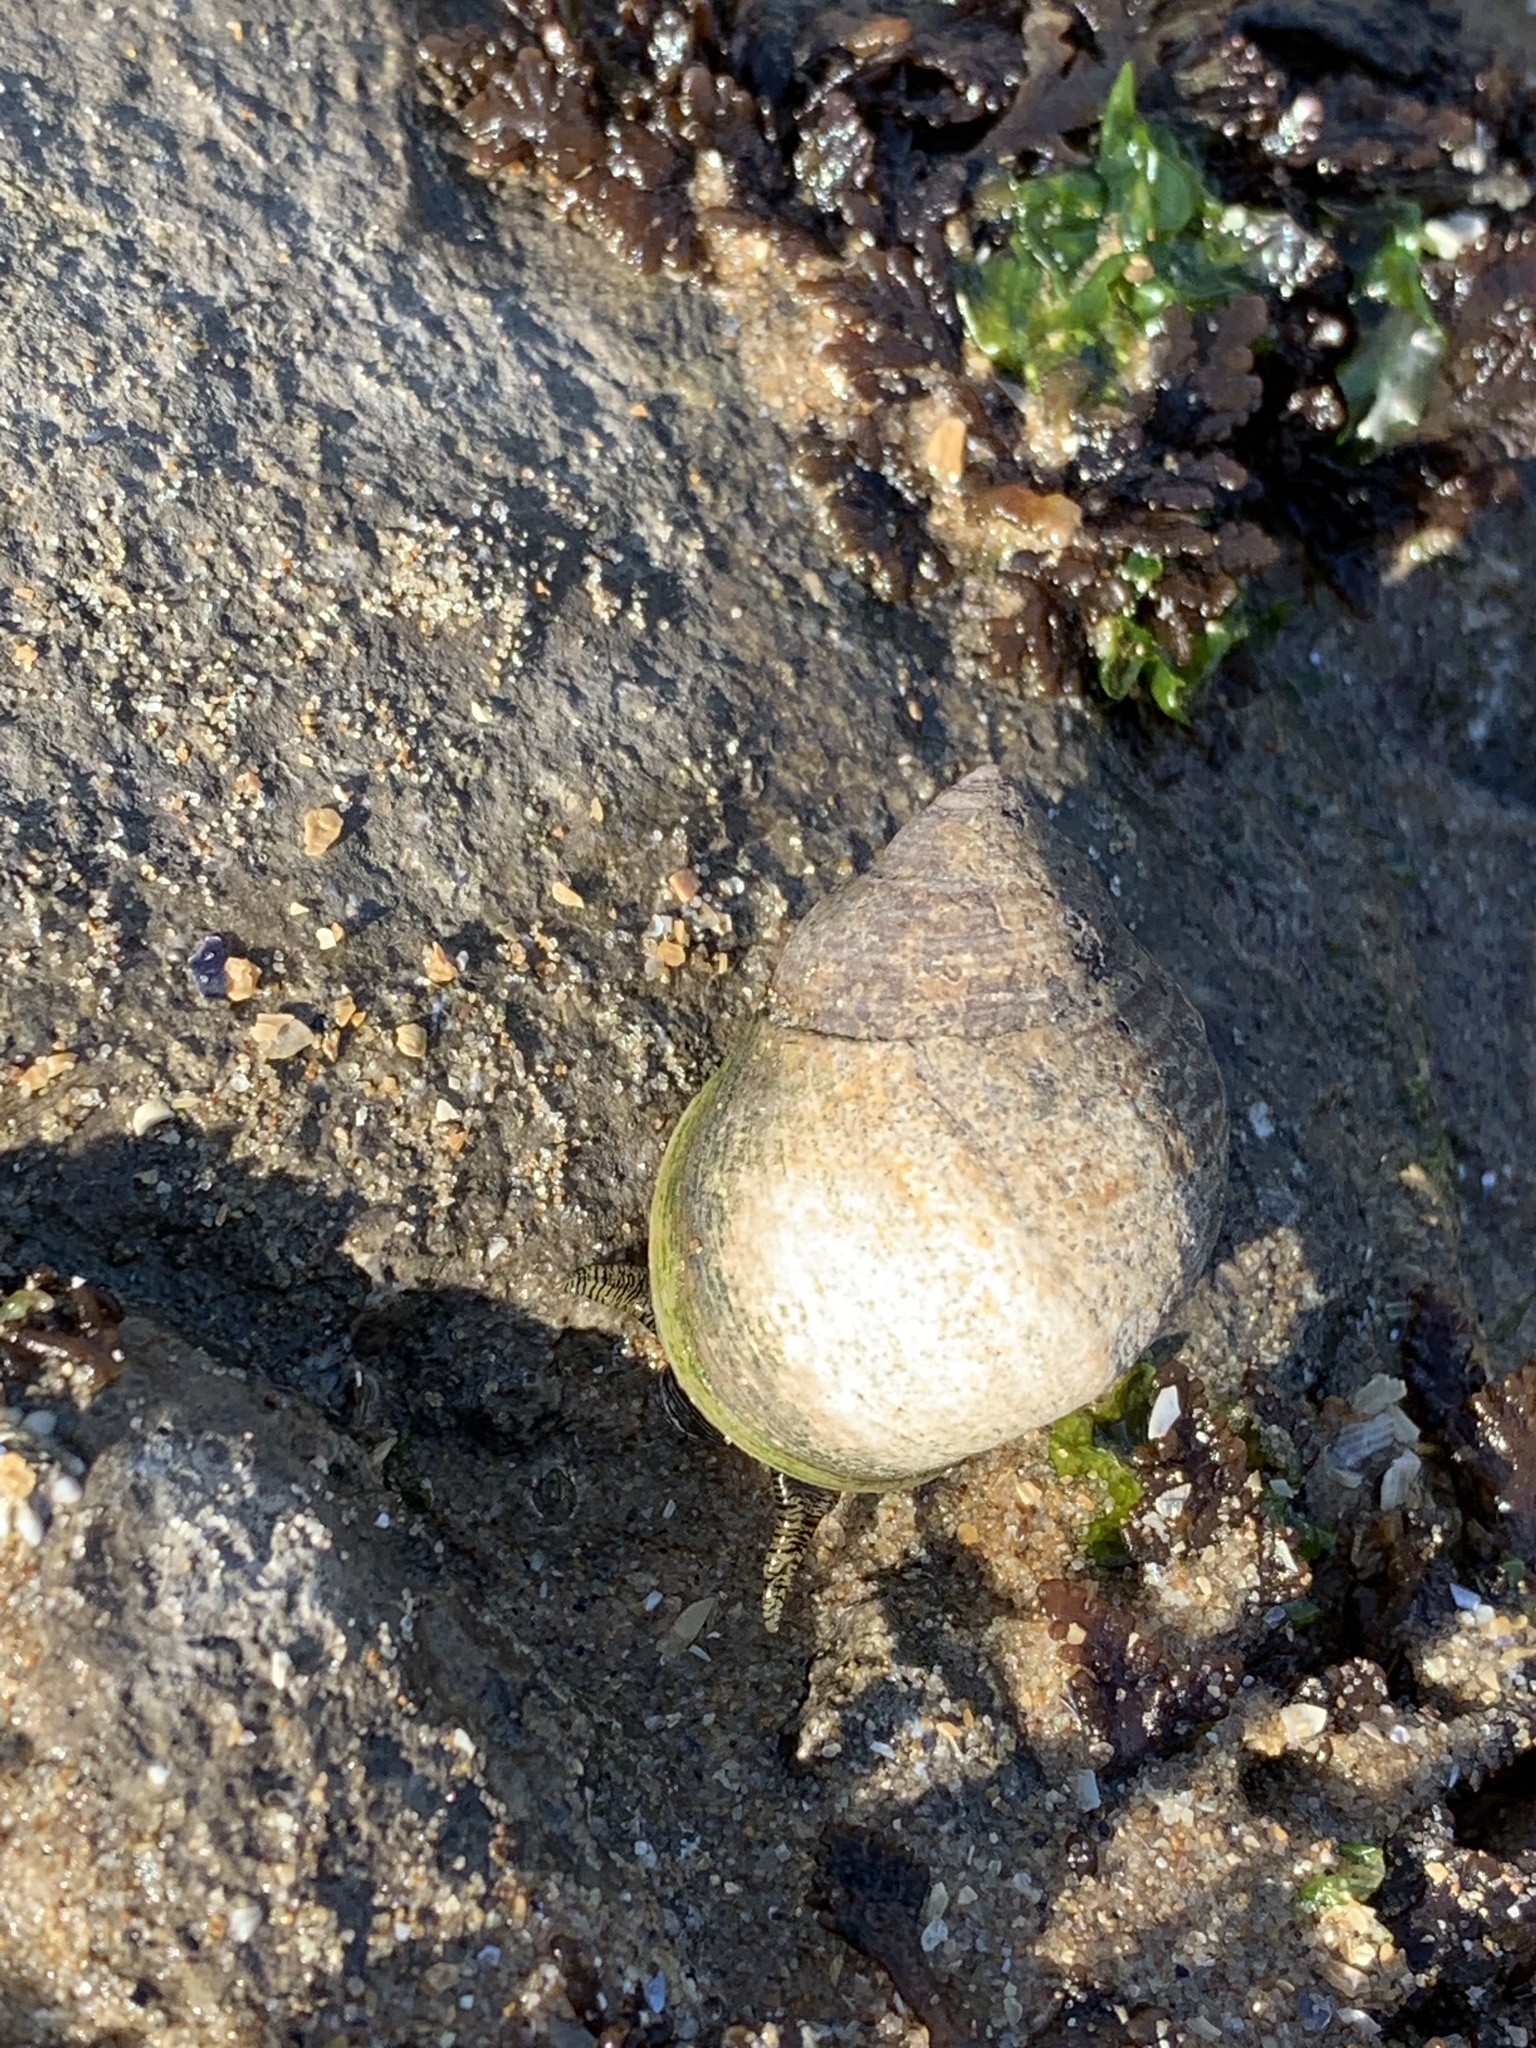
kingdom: Animalia
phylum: Mollusca
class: Gastropoda
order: Littorinimorpha
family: Littorinidae
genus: Littorina
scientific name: Littorina littorea
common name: Common periwinkle
